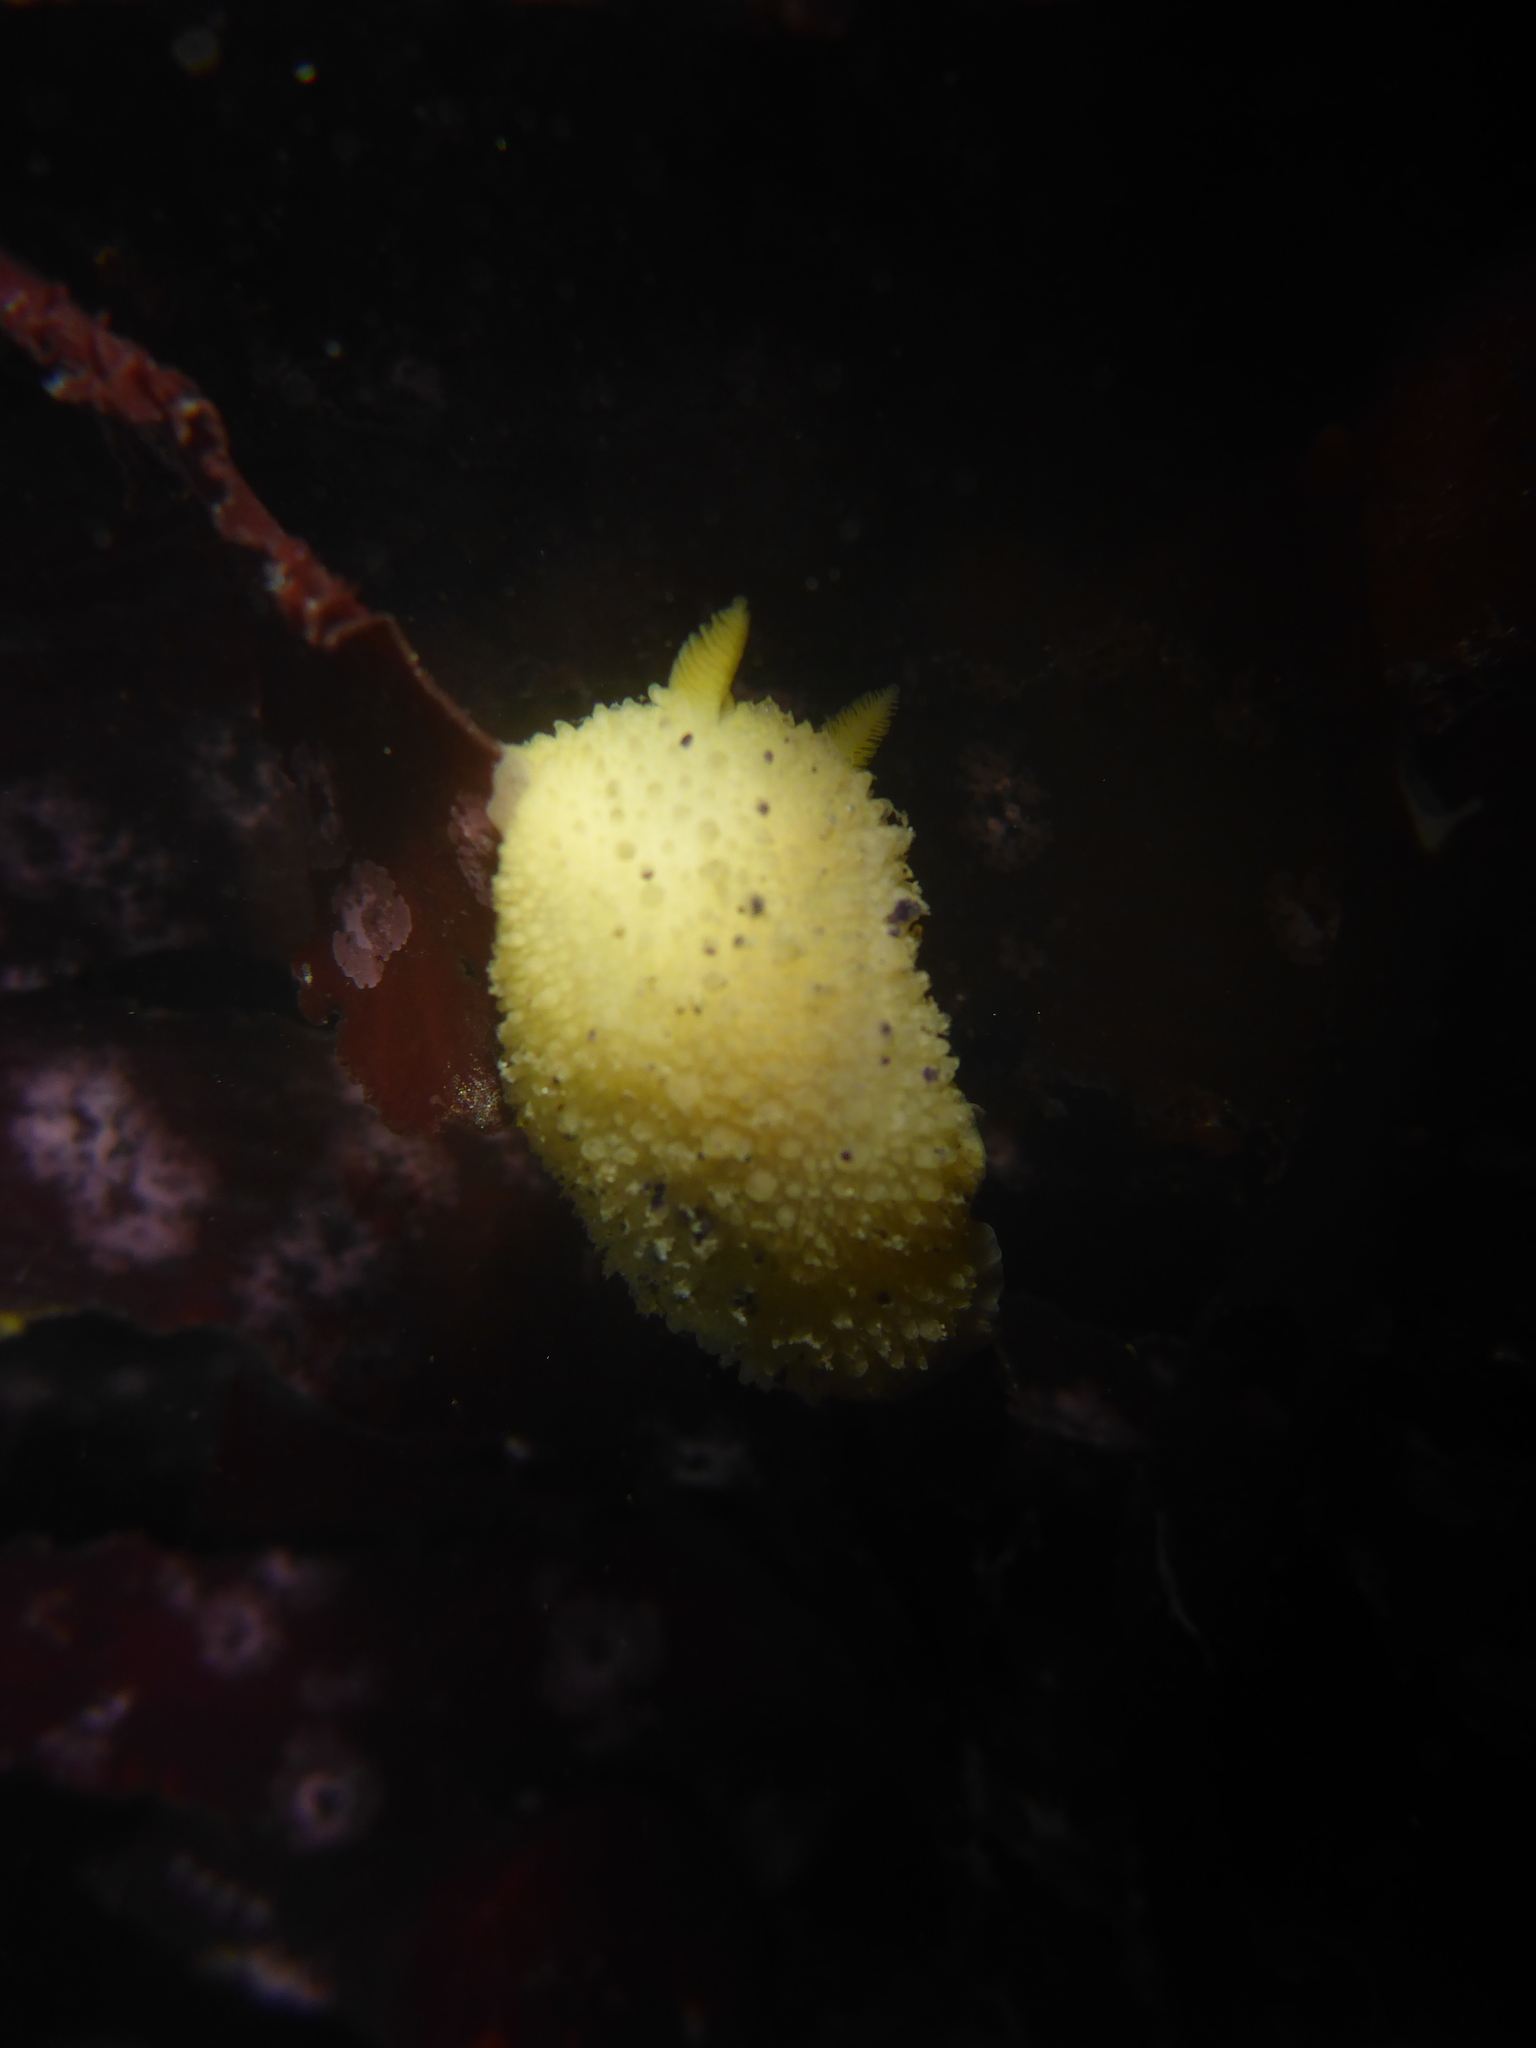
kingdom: Animalia
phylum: Mollusca
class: Gastropoda
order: Nudibranchia
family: Dorididae
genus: Doris
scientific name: Doris montereyensis
